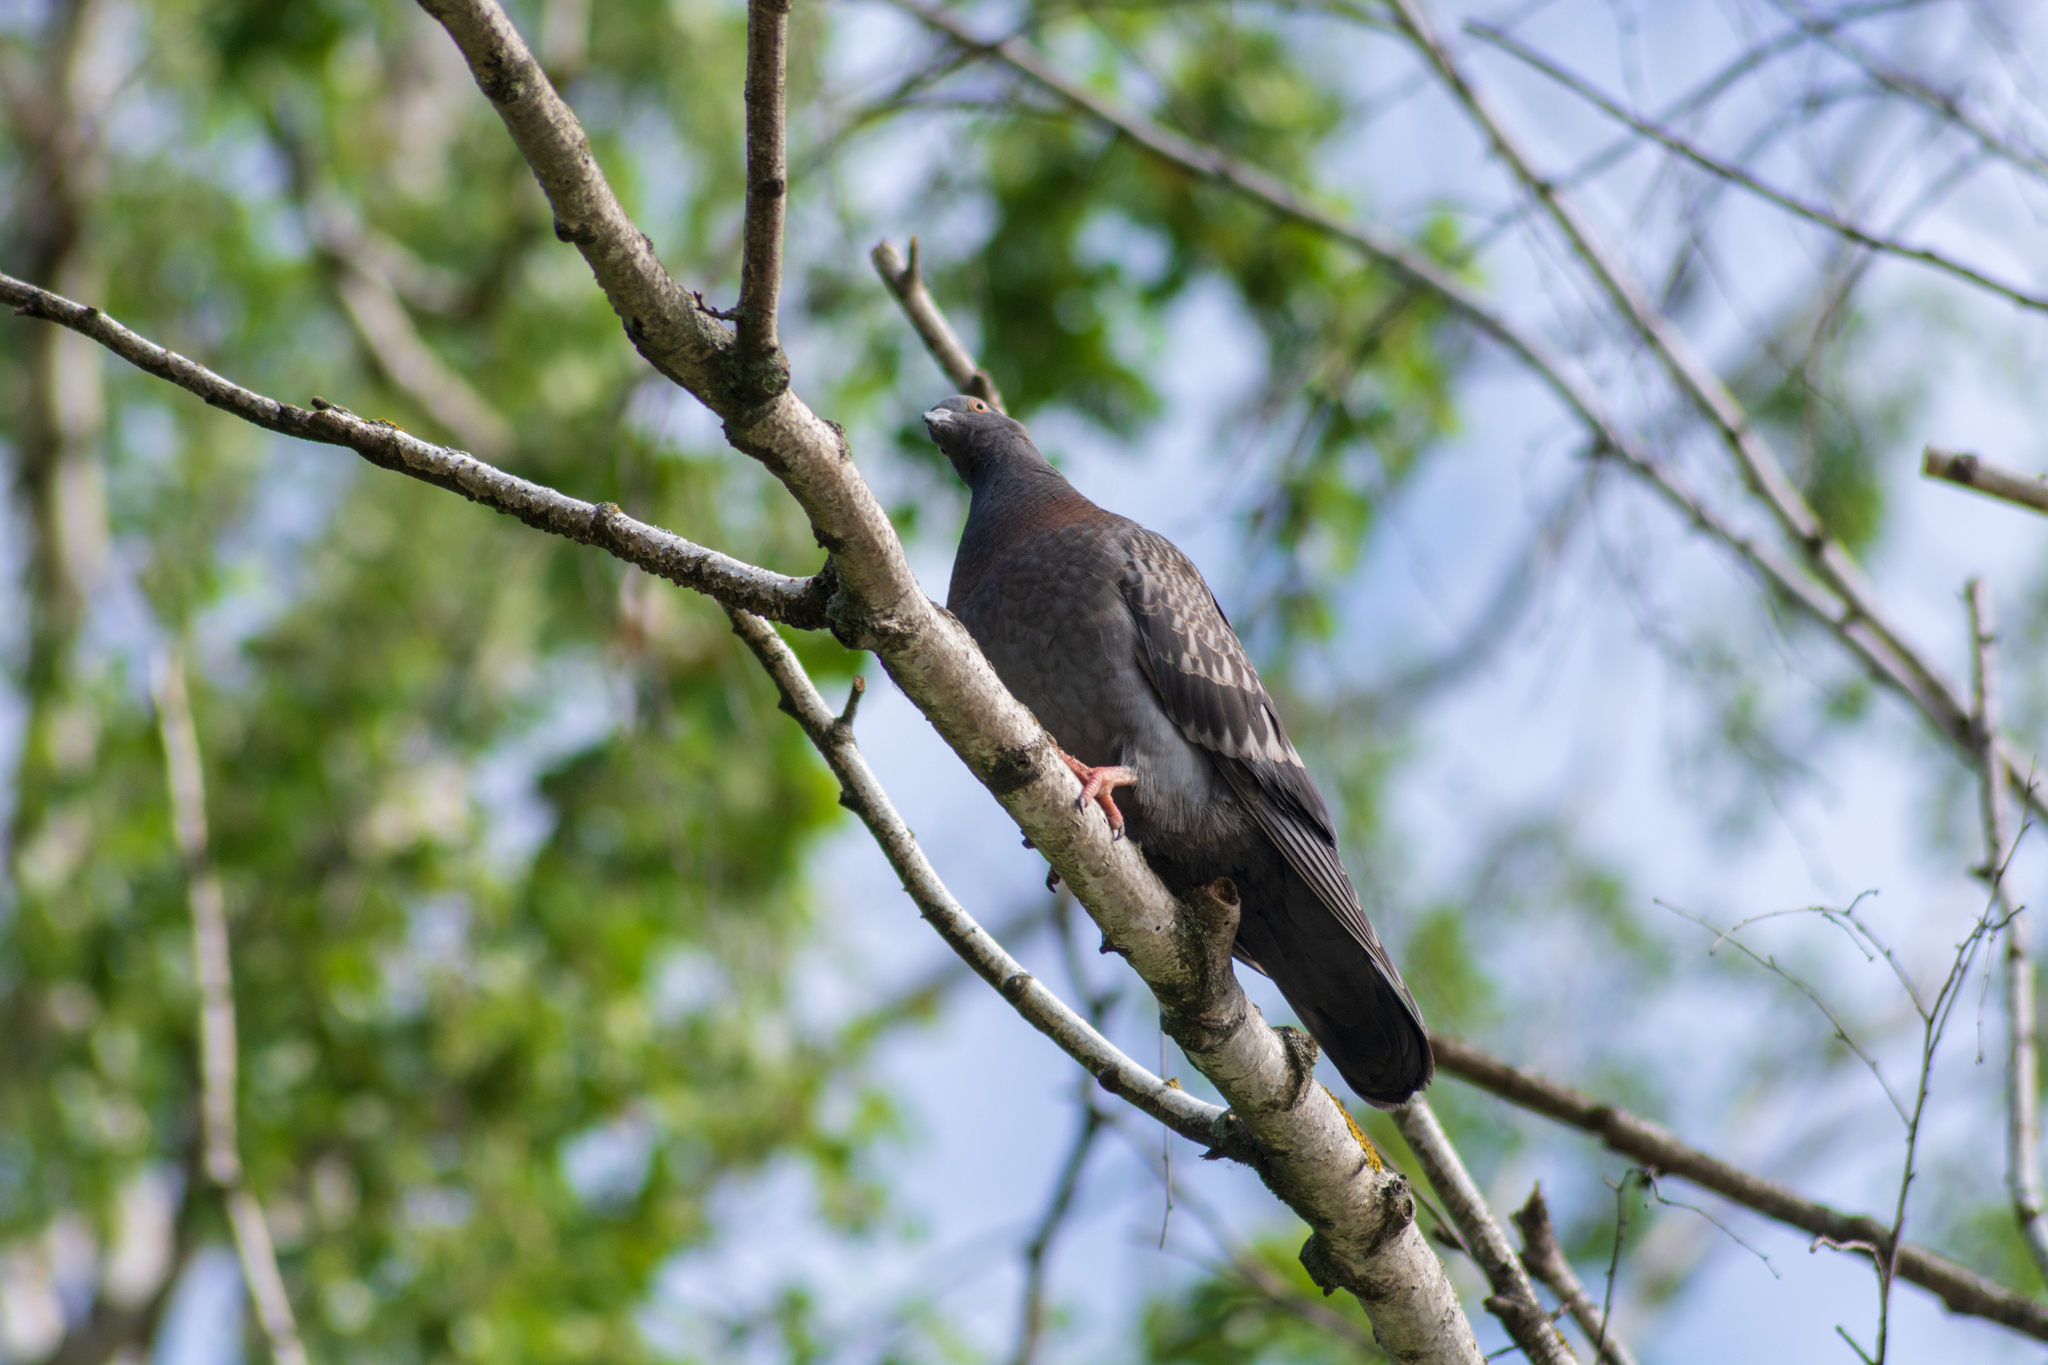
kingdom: Animalia
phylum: Chordata
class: Aves
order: Columbiformes
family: Columbidae
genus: Columba
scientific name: Columba livia
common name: Rock pigeon
